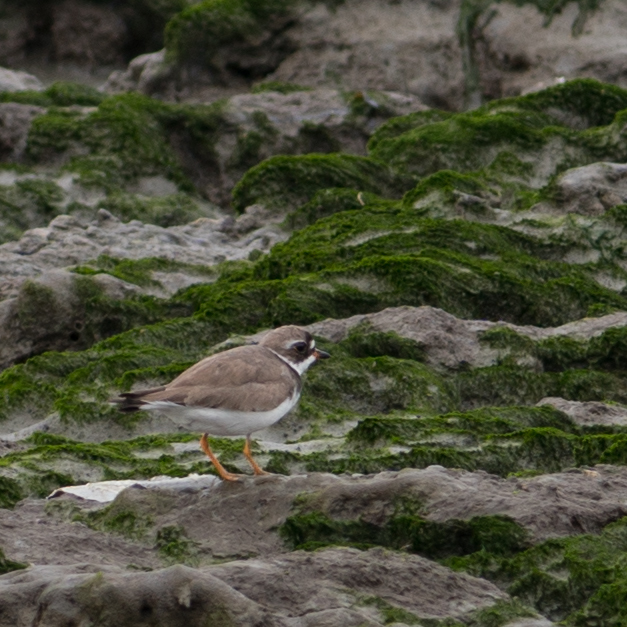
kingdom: Animalia
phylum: Chordata
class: Aves
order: Charadriiformes
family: Charadriidae
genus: Charadrius
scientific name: Charadrius semipalmatus
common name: Semipalmated plover
